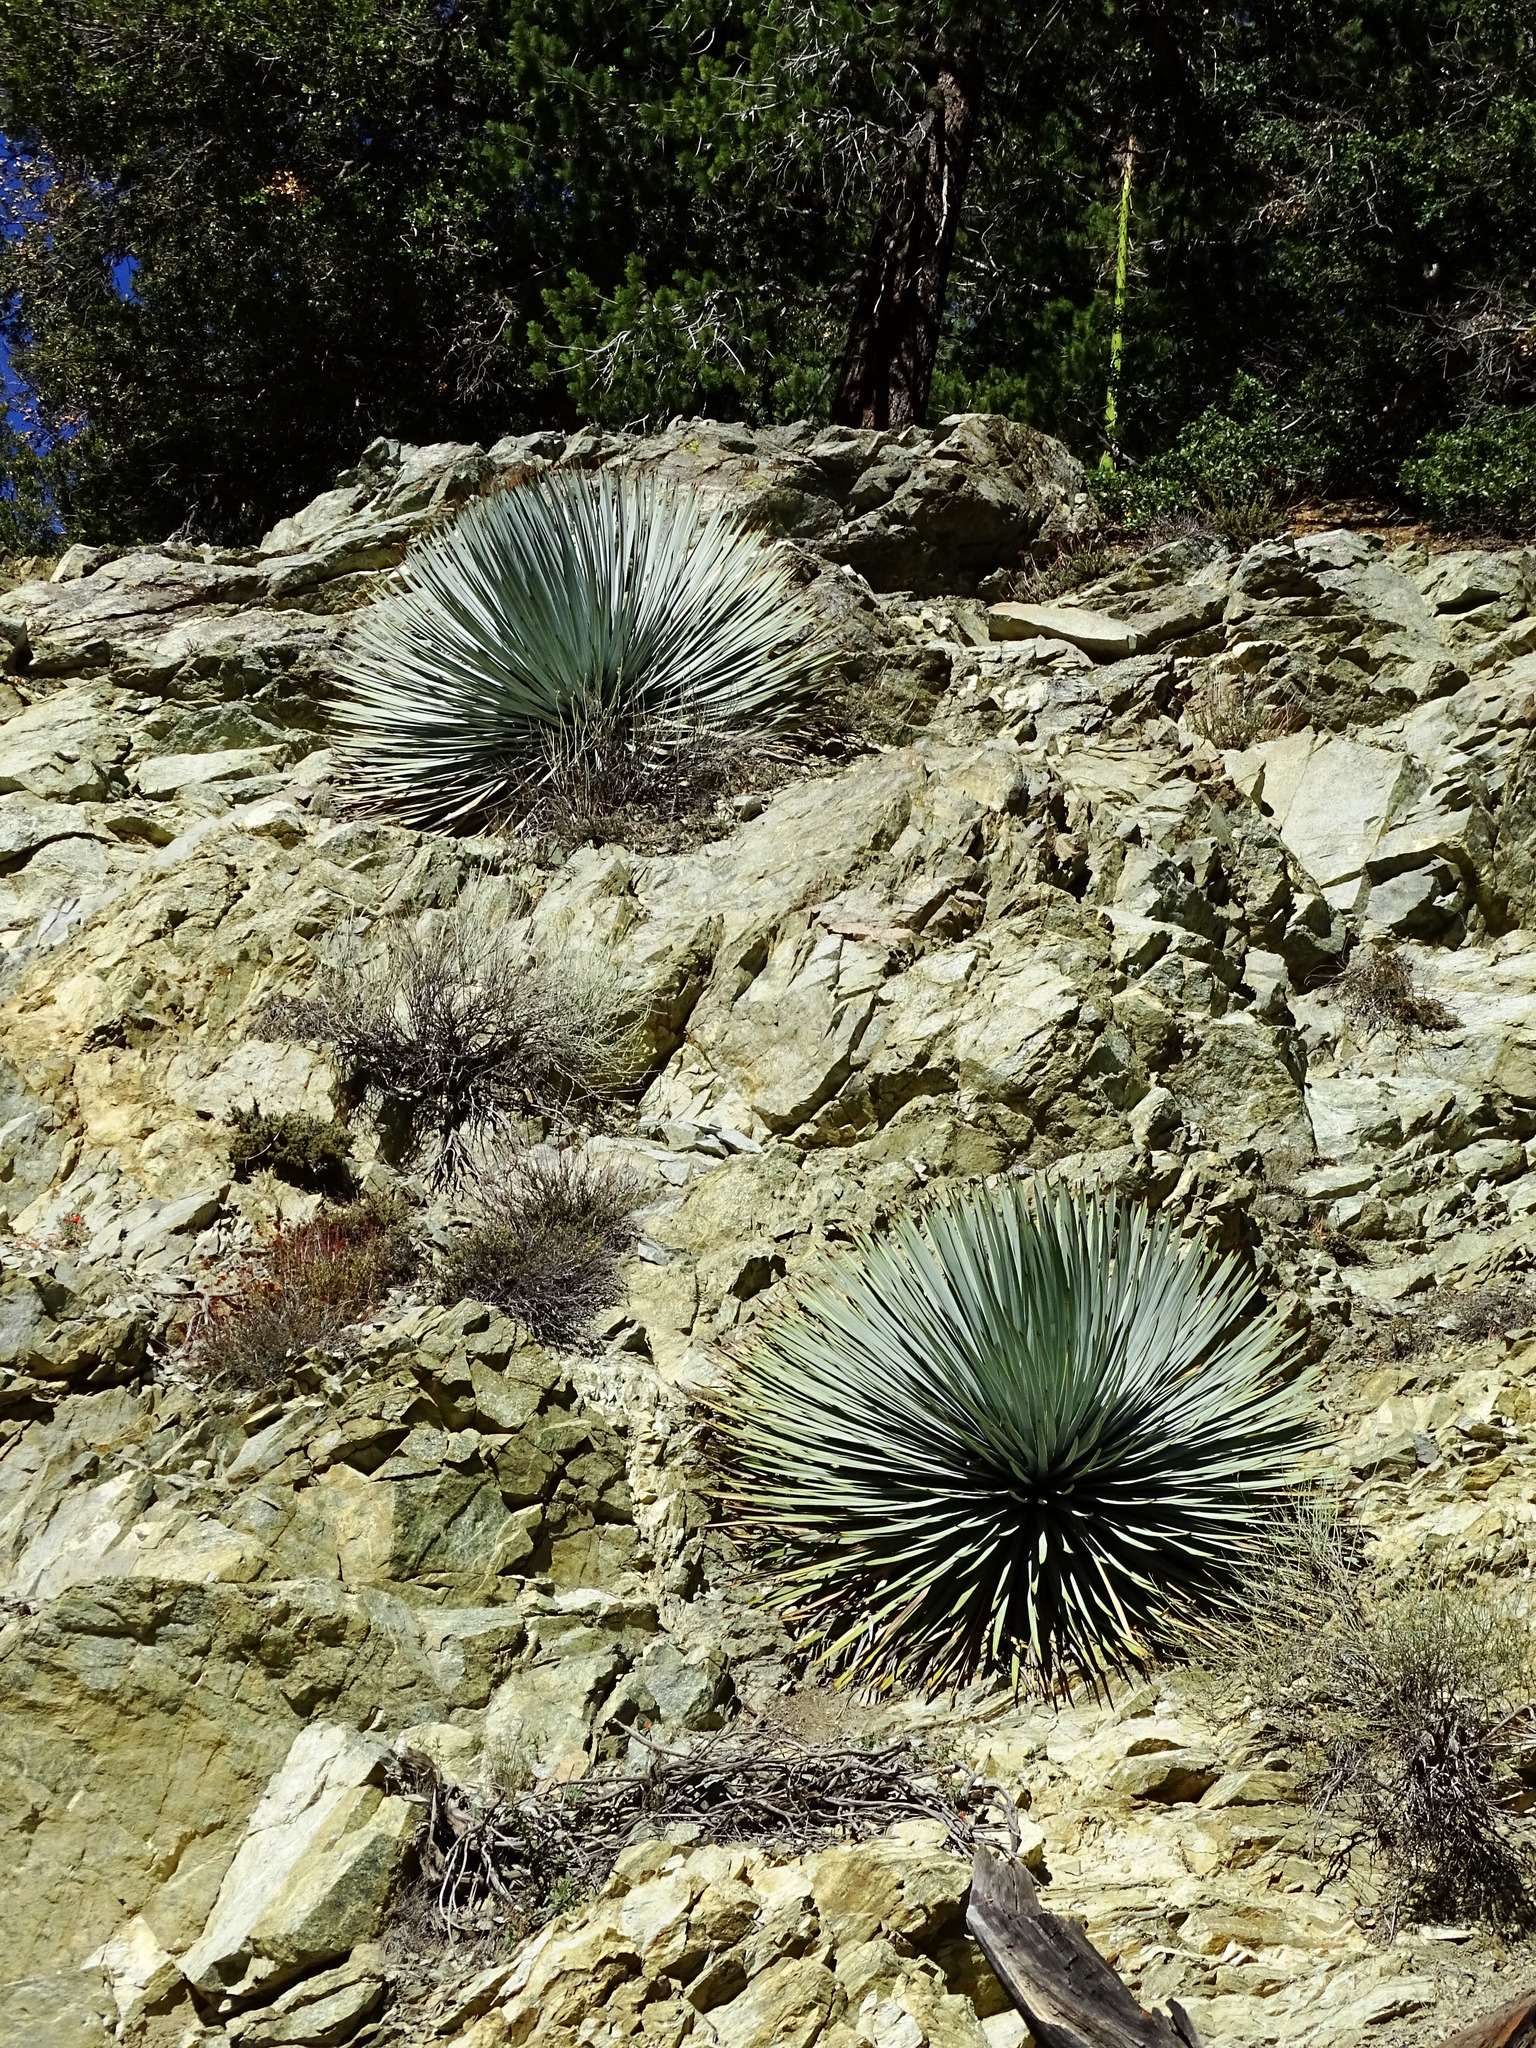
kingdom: Plantae
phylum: Tracheophyta
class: Liliopsida
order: Asparagales
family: Asparagaceae
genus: Hesperoyucca
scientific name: Hesperoyucca whipplei
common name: Our lord's-candle
